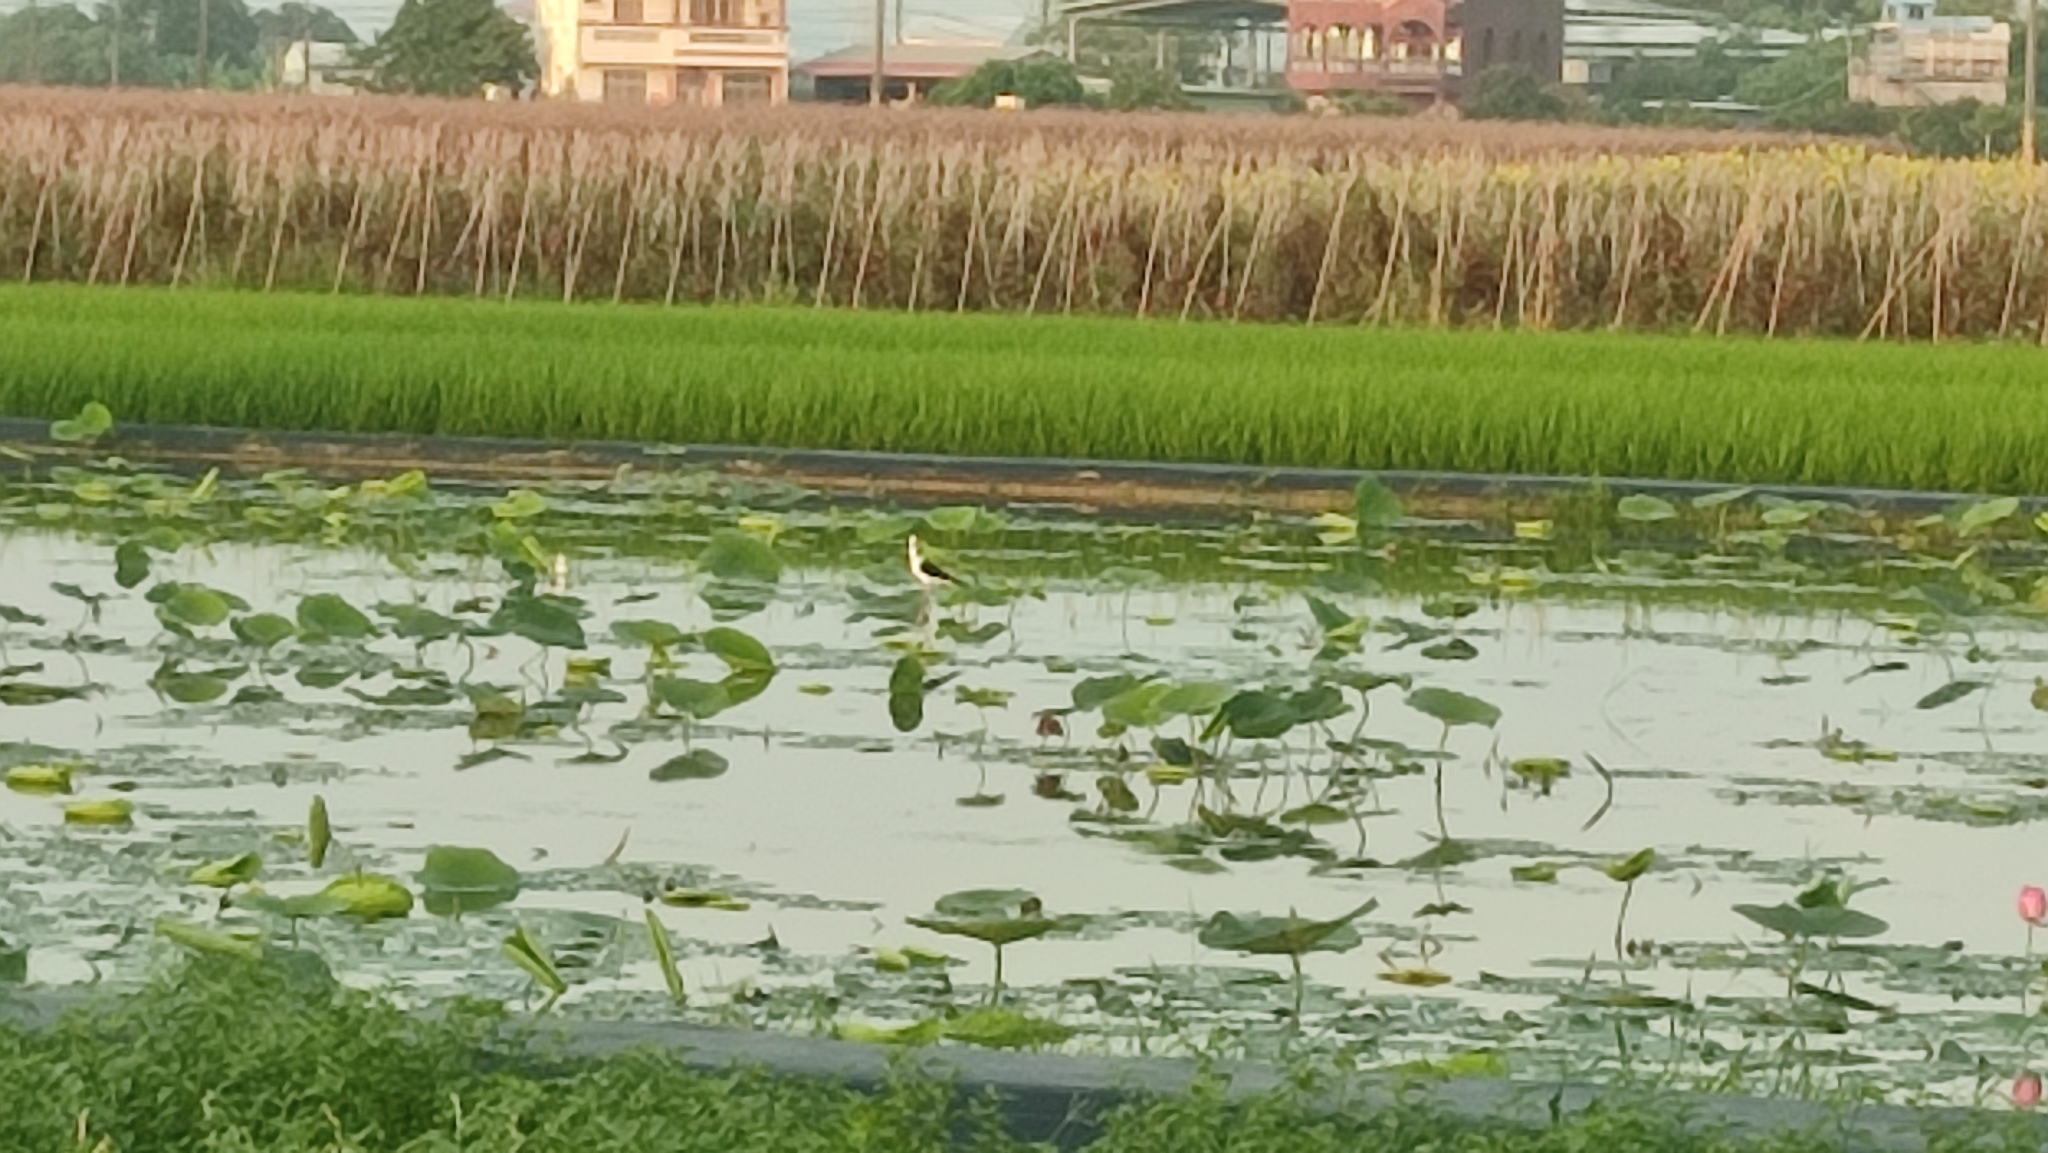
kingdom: Animalia
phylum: Chordata
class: Aves
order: Charadriiformes
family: Recurvirostridae
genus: Himantopus
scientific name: Himantopus himantopus
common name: Black-winged stilt
